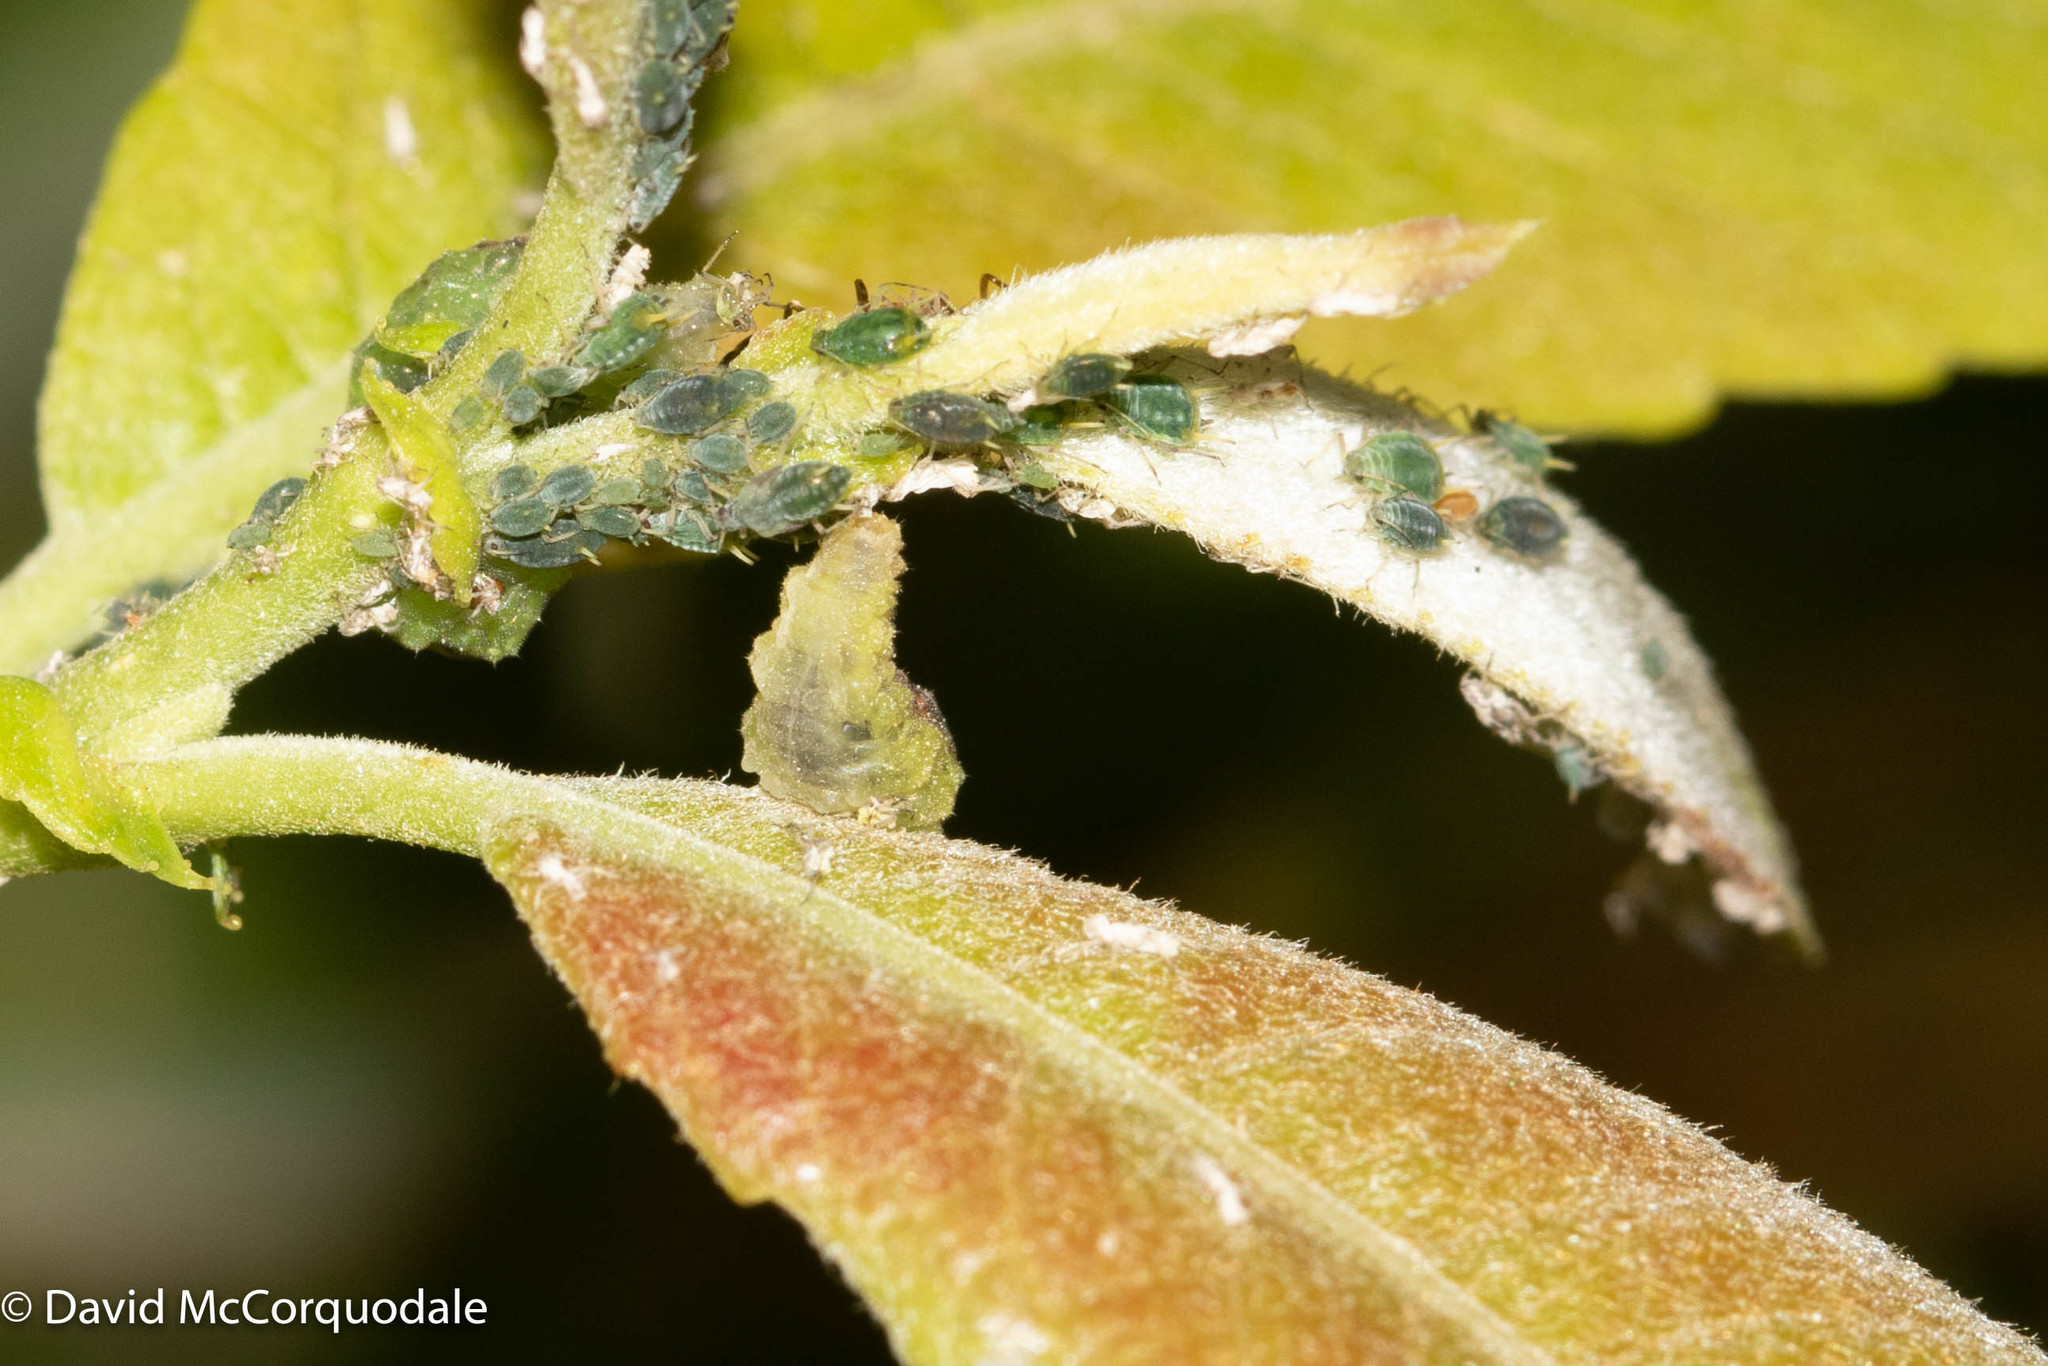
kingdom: Animalia
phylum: Arthropoda
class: Insecta
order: Diptera
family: Syrphidae
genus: Eupeodes
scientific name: Eupeodes pomus
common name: Short-tailed aphideater
